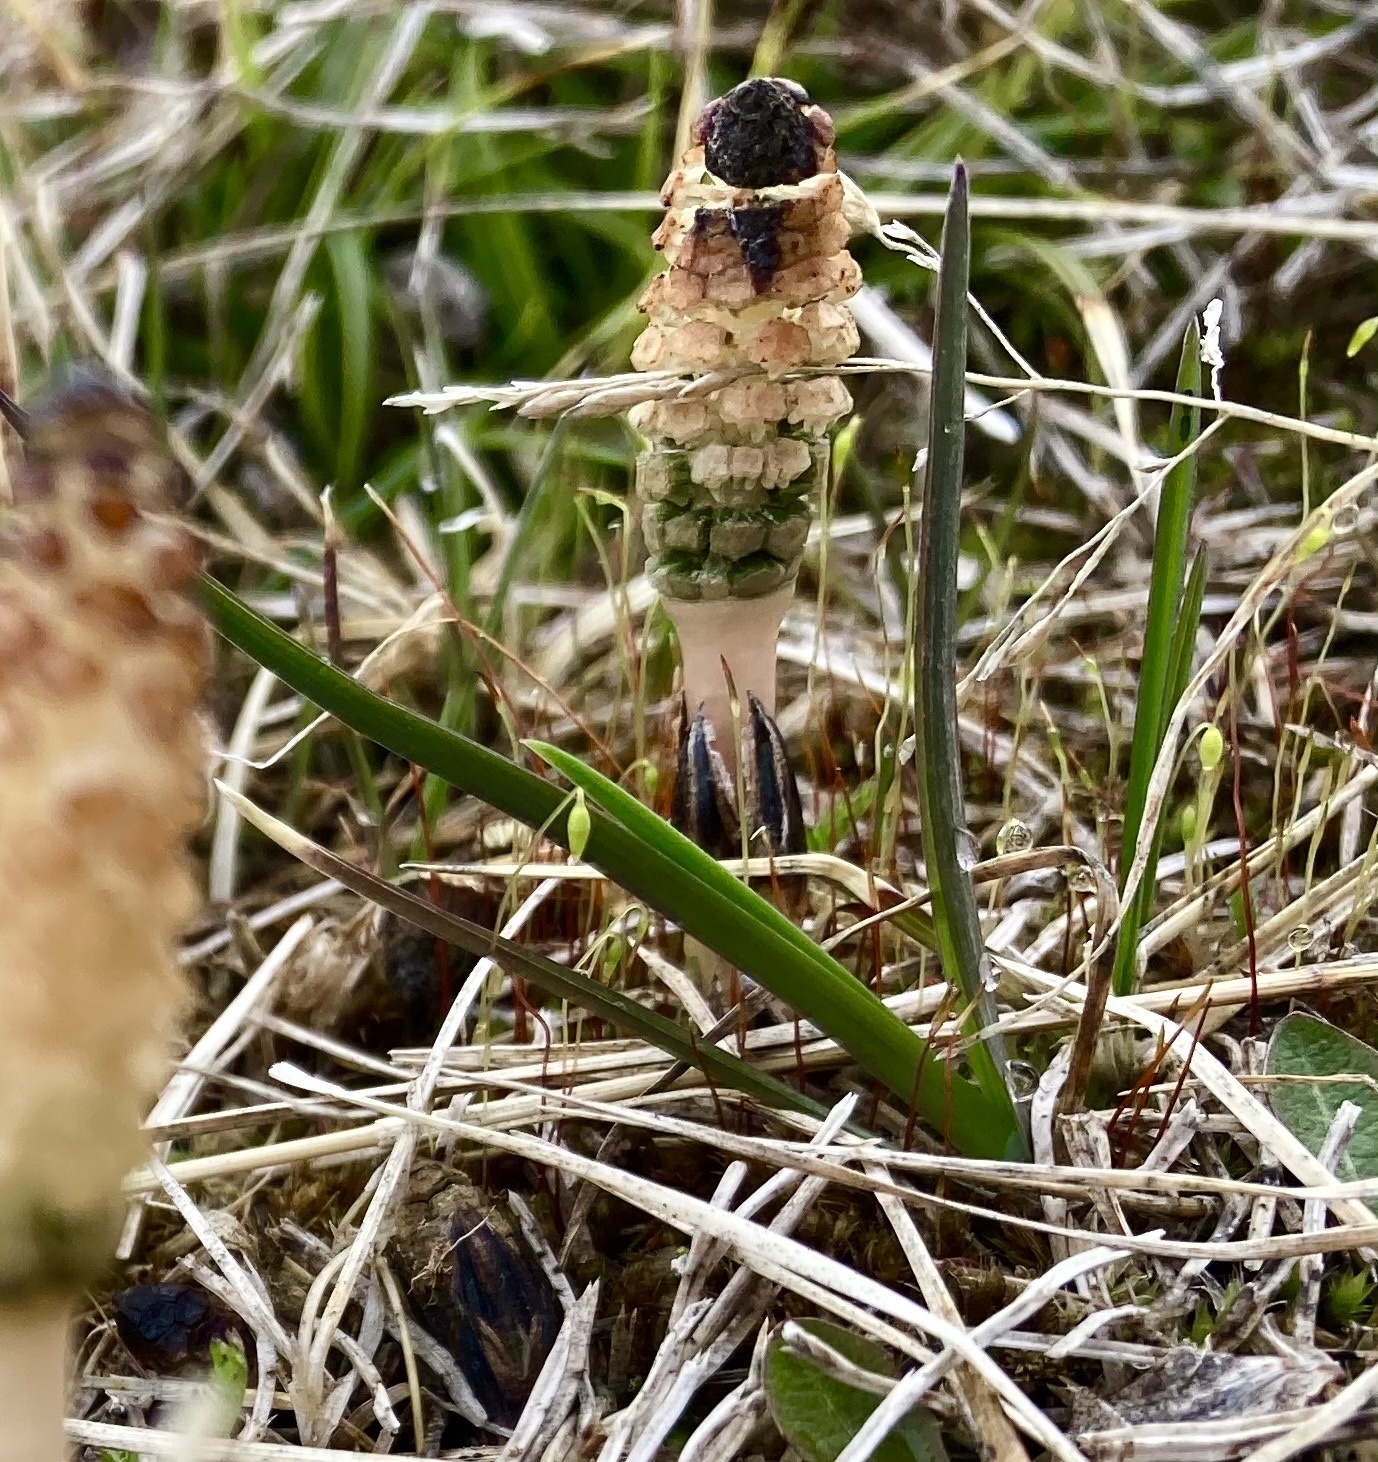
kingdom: Plantae
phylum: Tracheophyta
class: Polypodiopsida
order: Equisetales
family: Equisetaceae
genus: Equisetum
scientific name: Equisetum arvense
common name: Field horsetail
